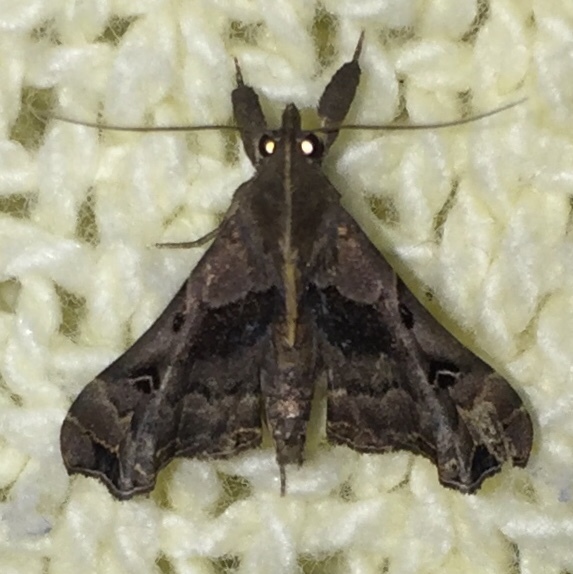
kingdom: Animalia
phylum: Arthropoda
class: Insecta
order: Lepidoptera
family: Erebidae
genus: Palthis
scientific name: Palthis asopialis
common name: Faint-spotted palthis moth
